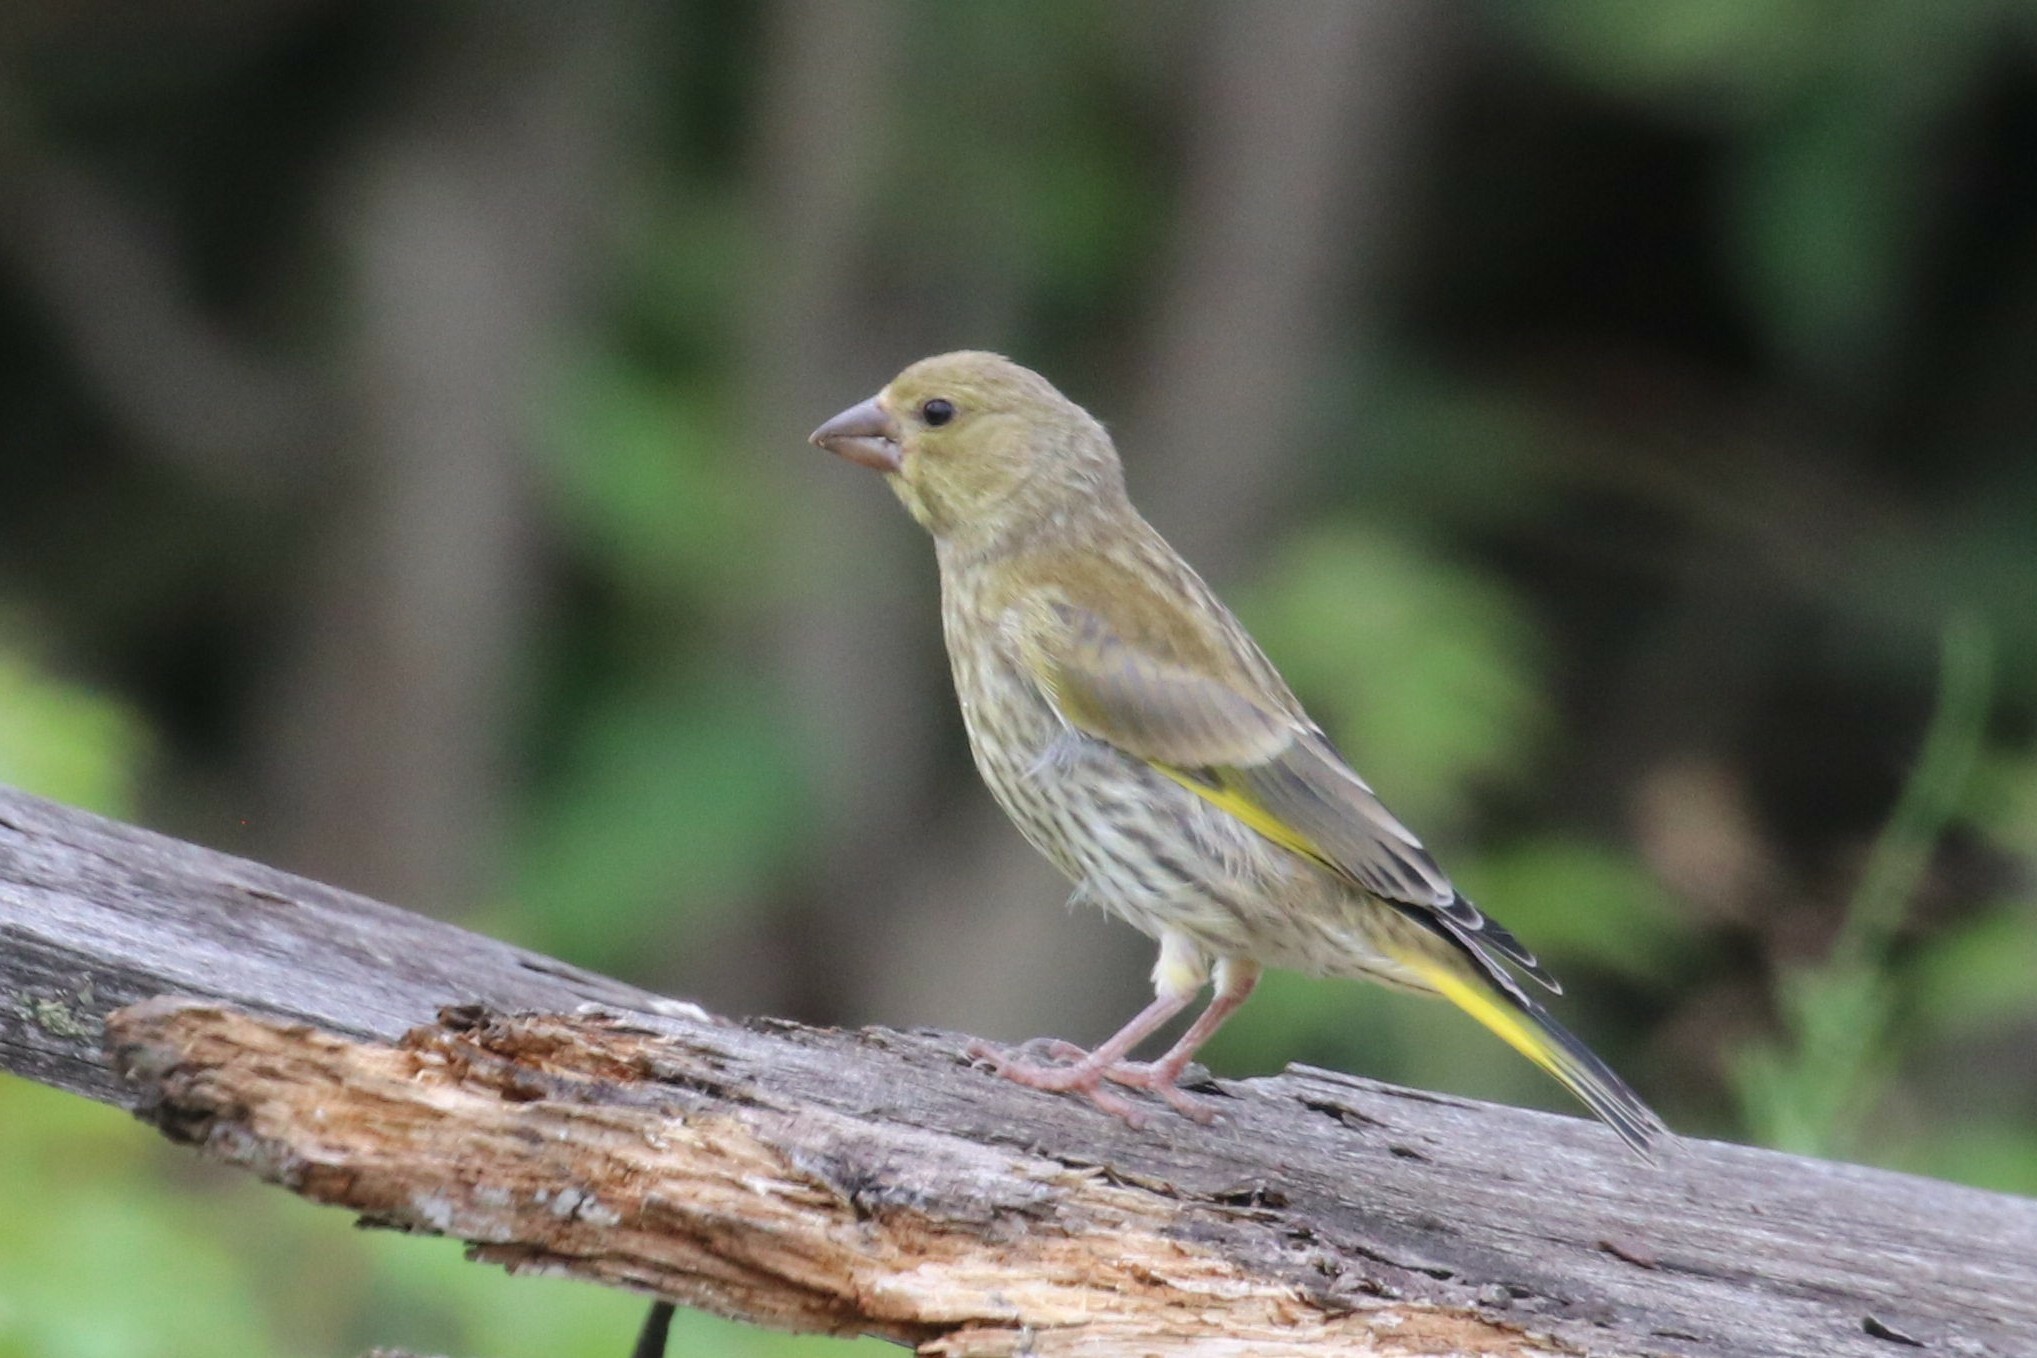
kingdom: Plantae
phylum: Tracheophyta
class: Liliopsida
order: Poales
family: Poaceae
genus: Chloris
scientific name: Chloris chloris
